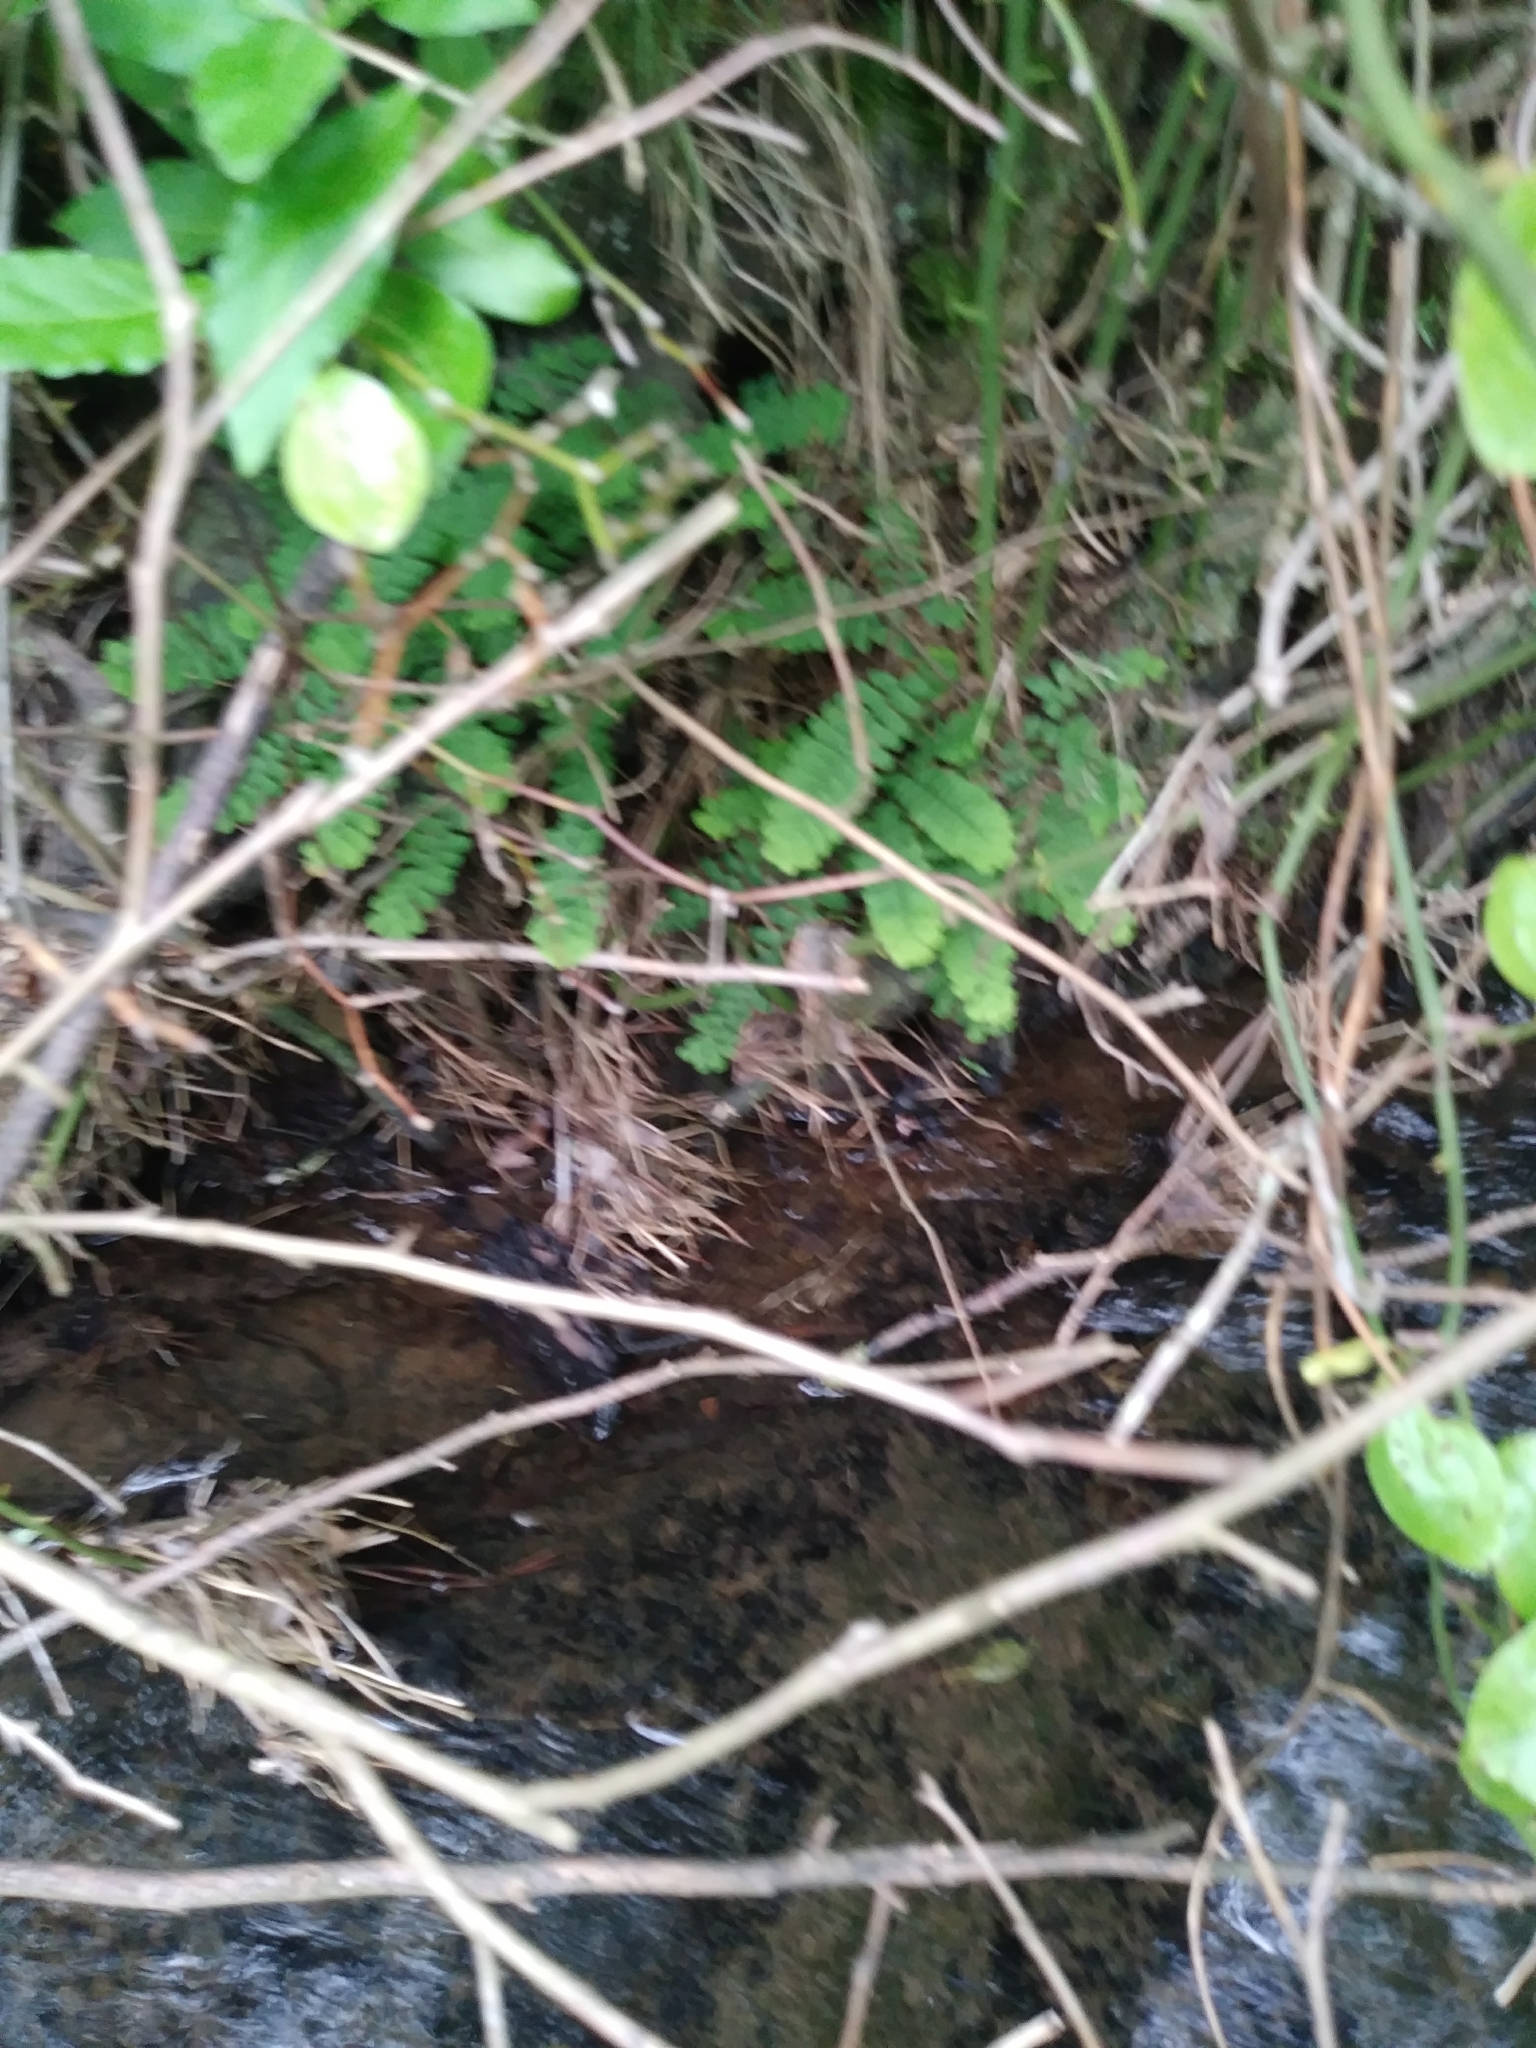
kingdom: Plantae
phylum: Tracheophyta
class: Polypodiopsida
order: Polypodiales
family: Pteridaceae
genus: Adiantum
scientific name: Adiantum pedatum
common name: Five-finger fern
